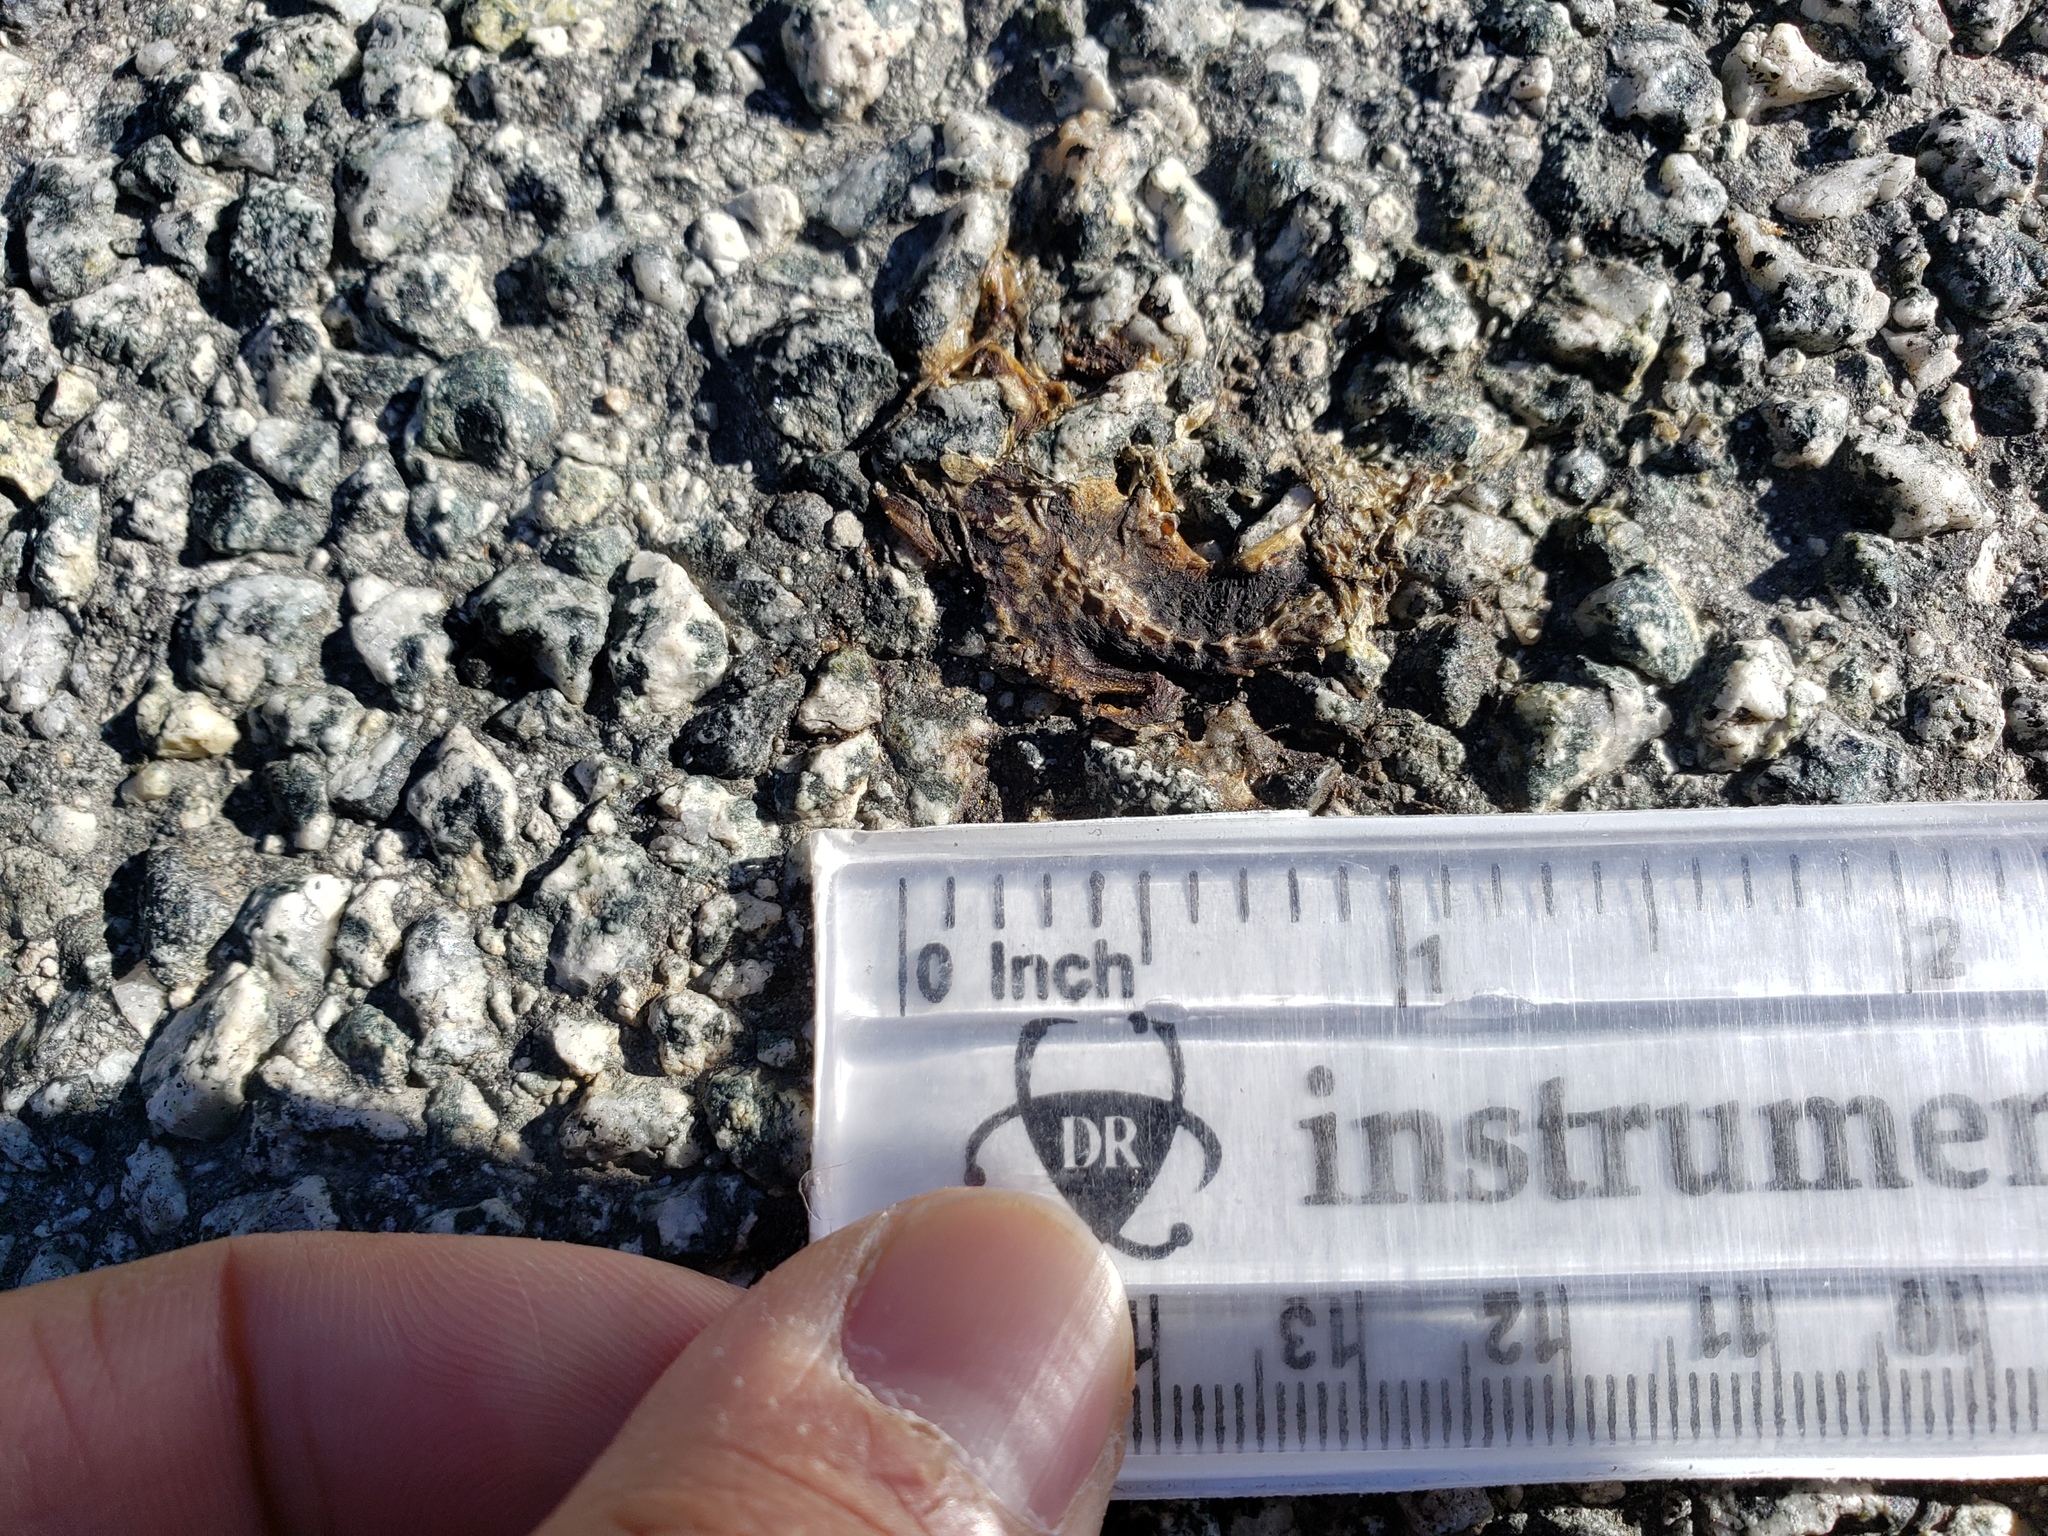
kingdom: Animalia
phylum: Chordata
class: Amphibia
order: Caudata
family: Salamandridae
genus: Taricha
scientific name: Taricha
